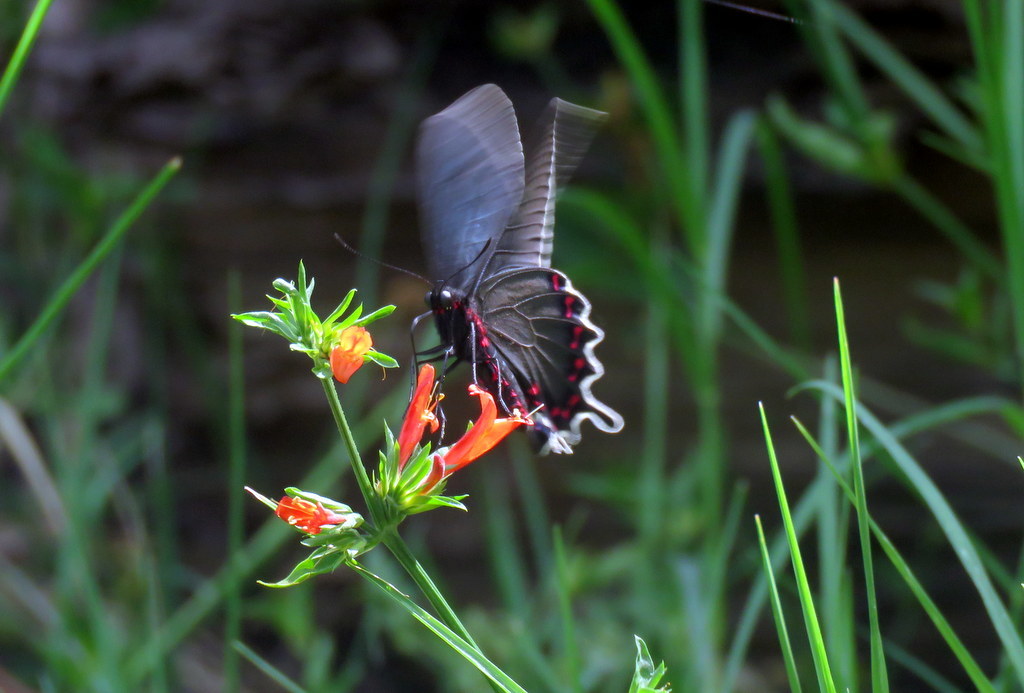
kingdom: Animalia
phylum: Arthropoda
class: Insecta
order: Lepidoptera
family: Papilionidae
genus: Parides
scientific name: Parides bunichus
